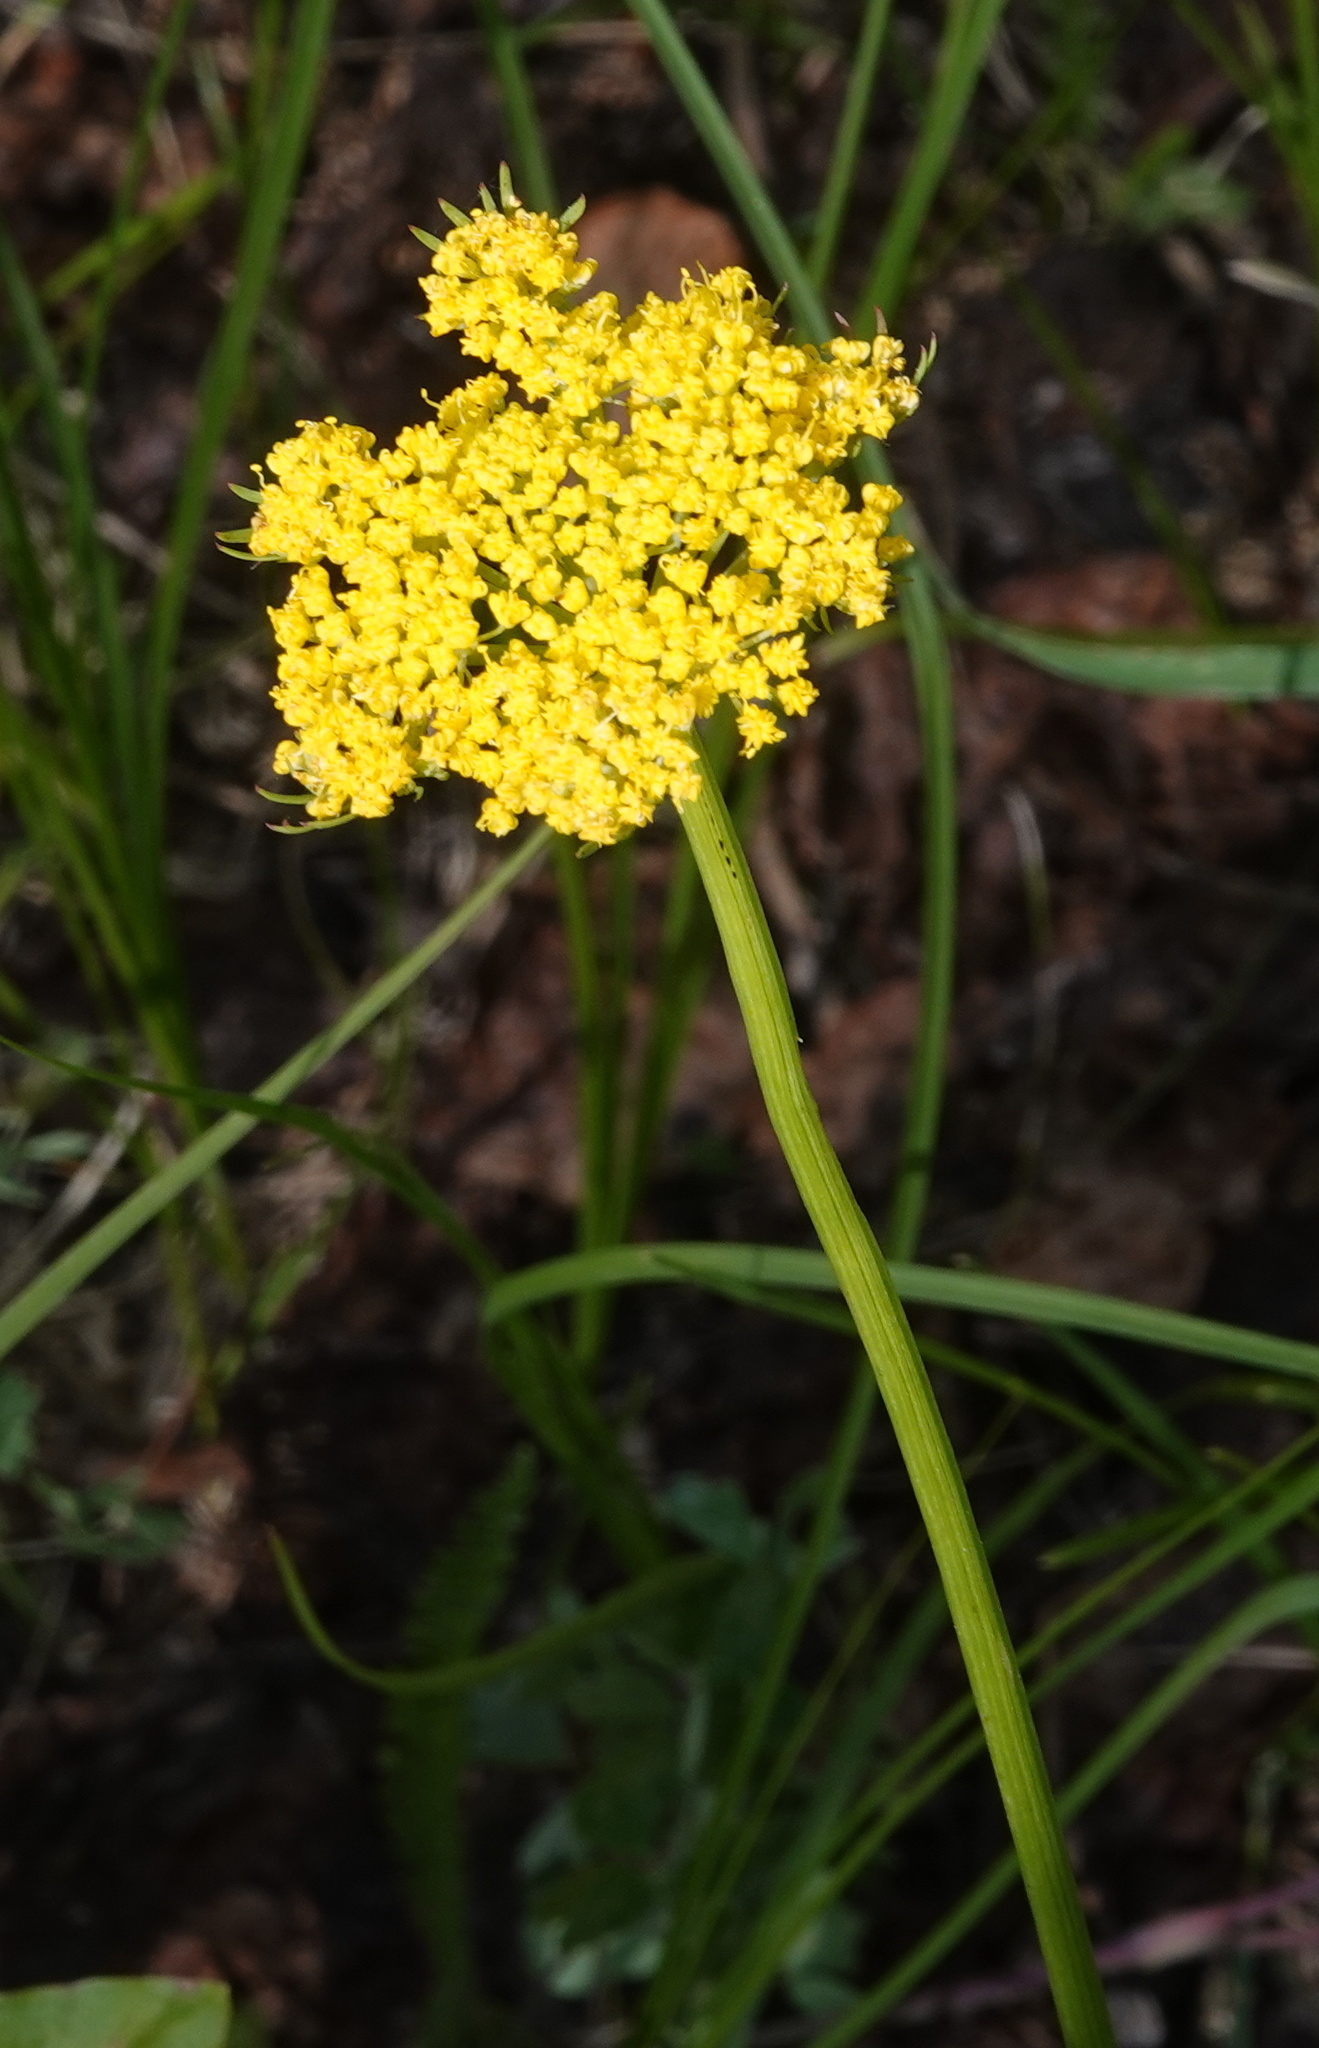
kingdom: Plantae
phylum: Tracheophyta
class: Magnoliopsida
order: Apiales
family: Apiaceae
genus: Cymopterus
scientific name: Cymopterus lemmonii
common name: Lemmon's spring-parsley
